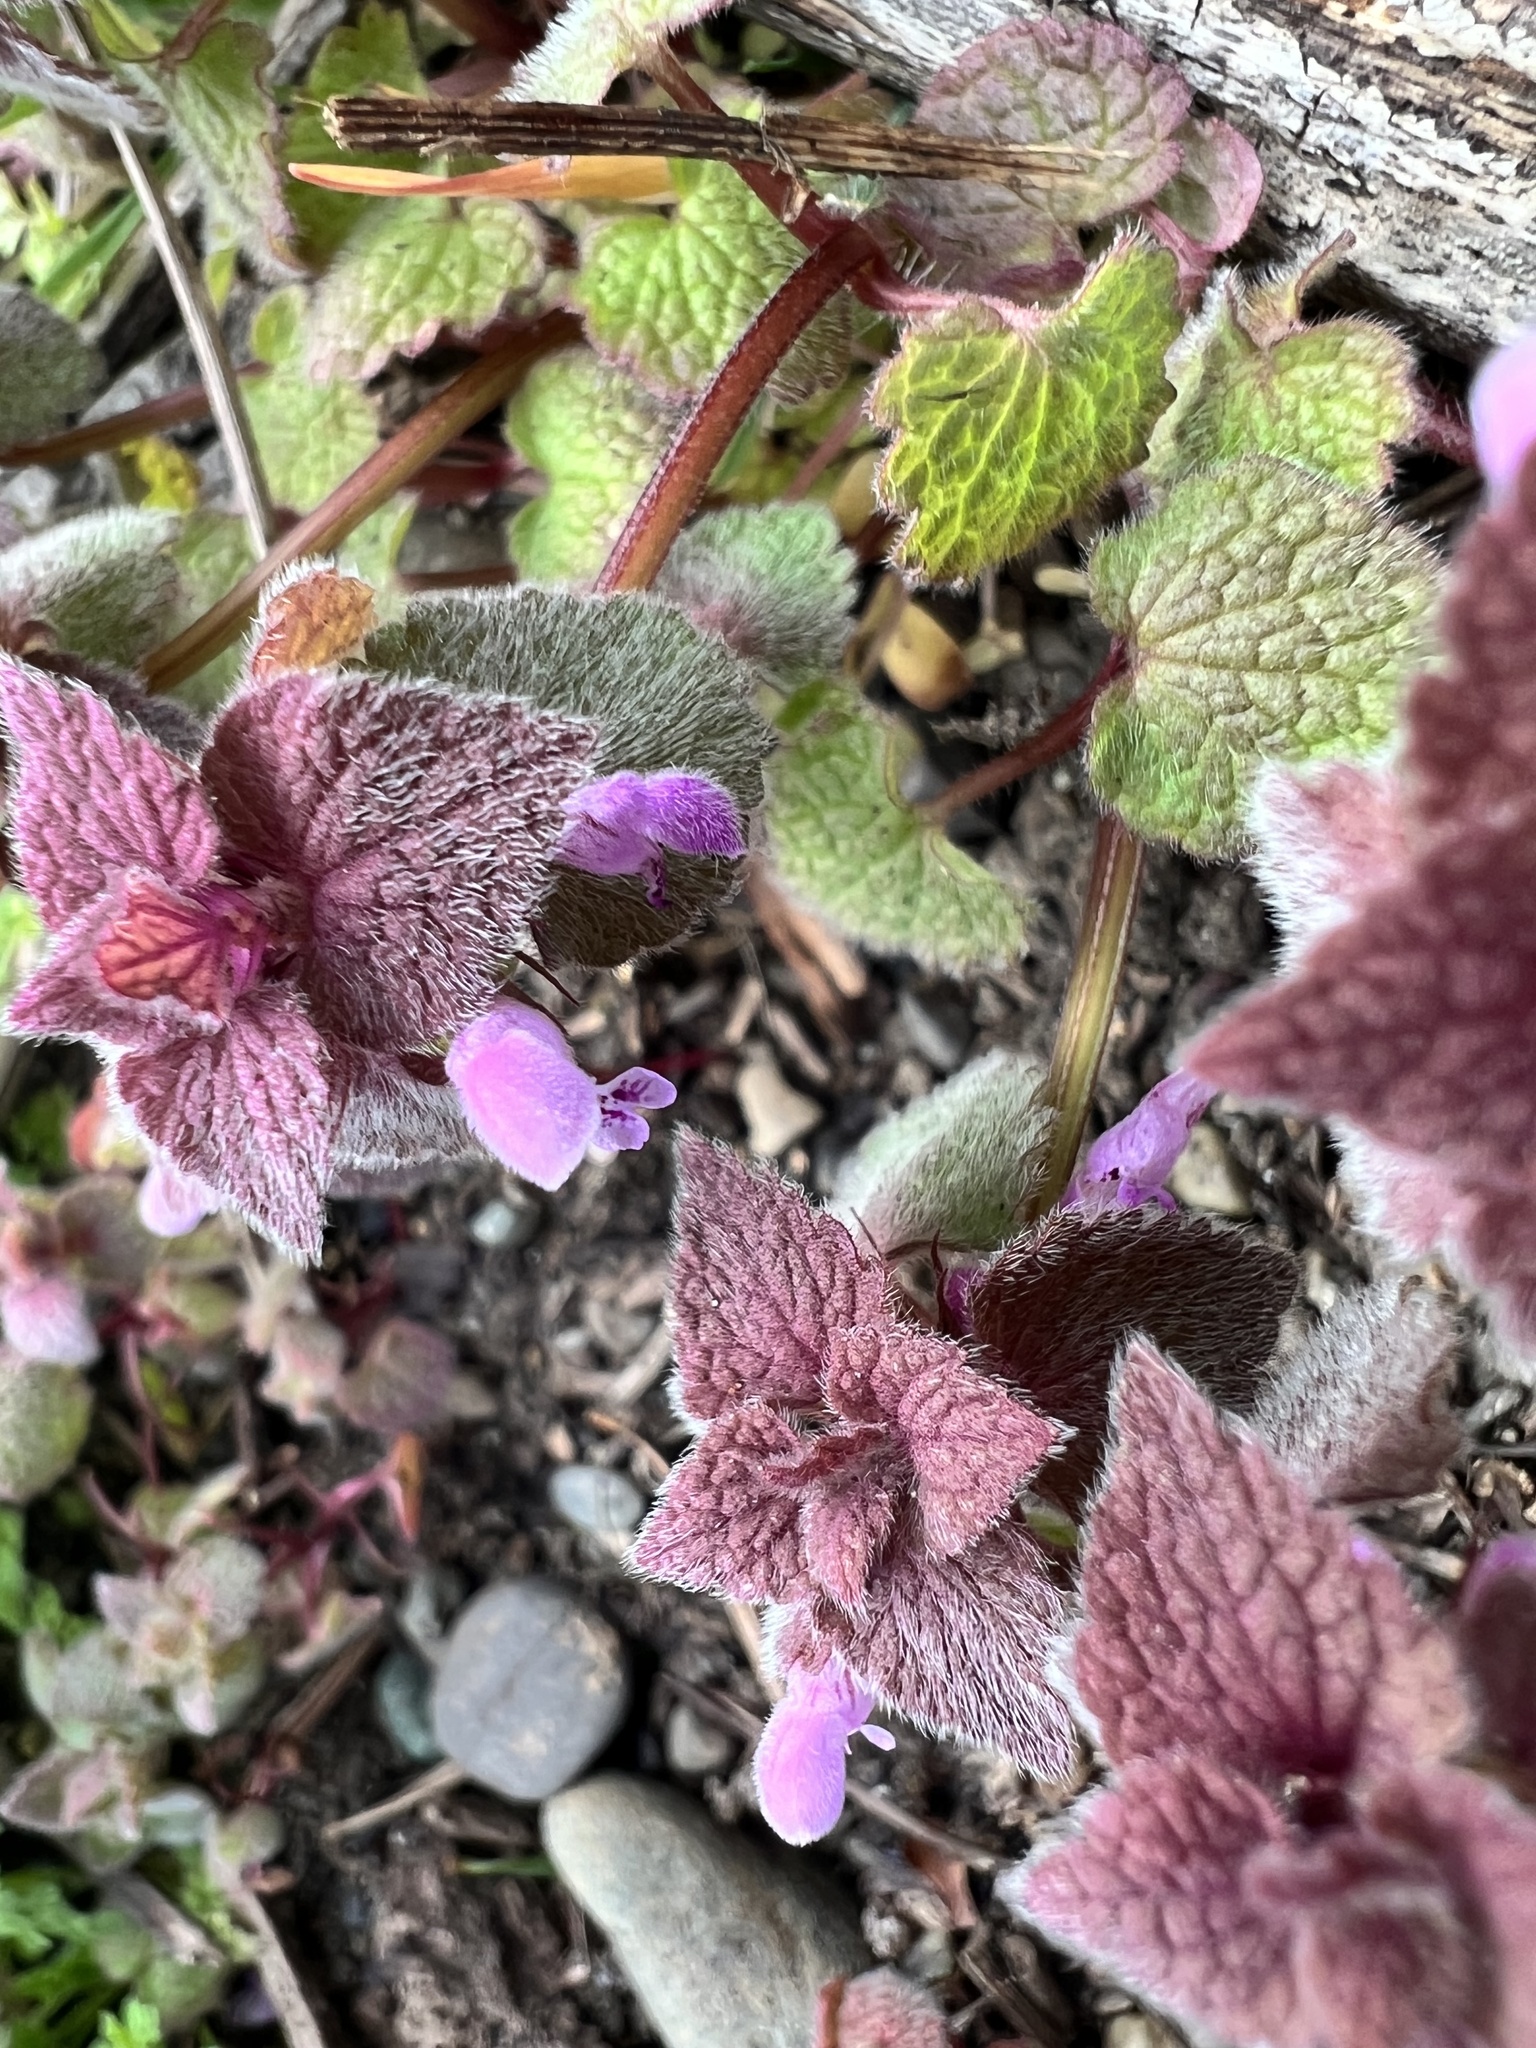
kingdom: Plantae
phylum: Tracheophyta
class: Magnoliopsida
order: Lamiales
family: Lamiaceae
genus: Lamium
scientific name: Lamium purpureum
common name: Red dead-nettle
